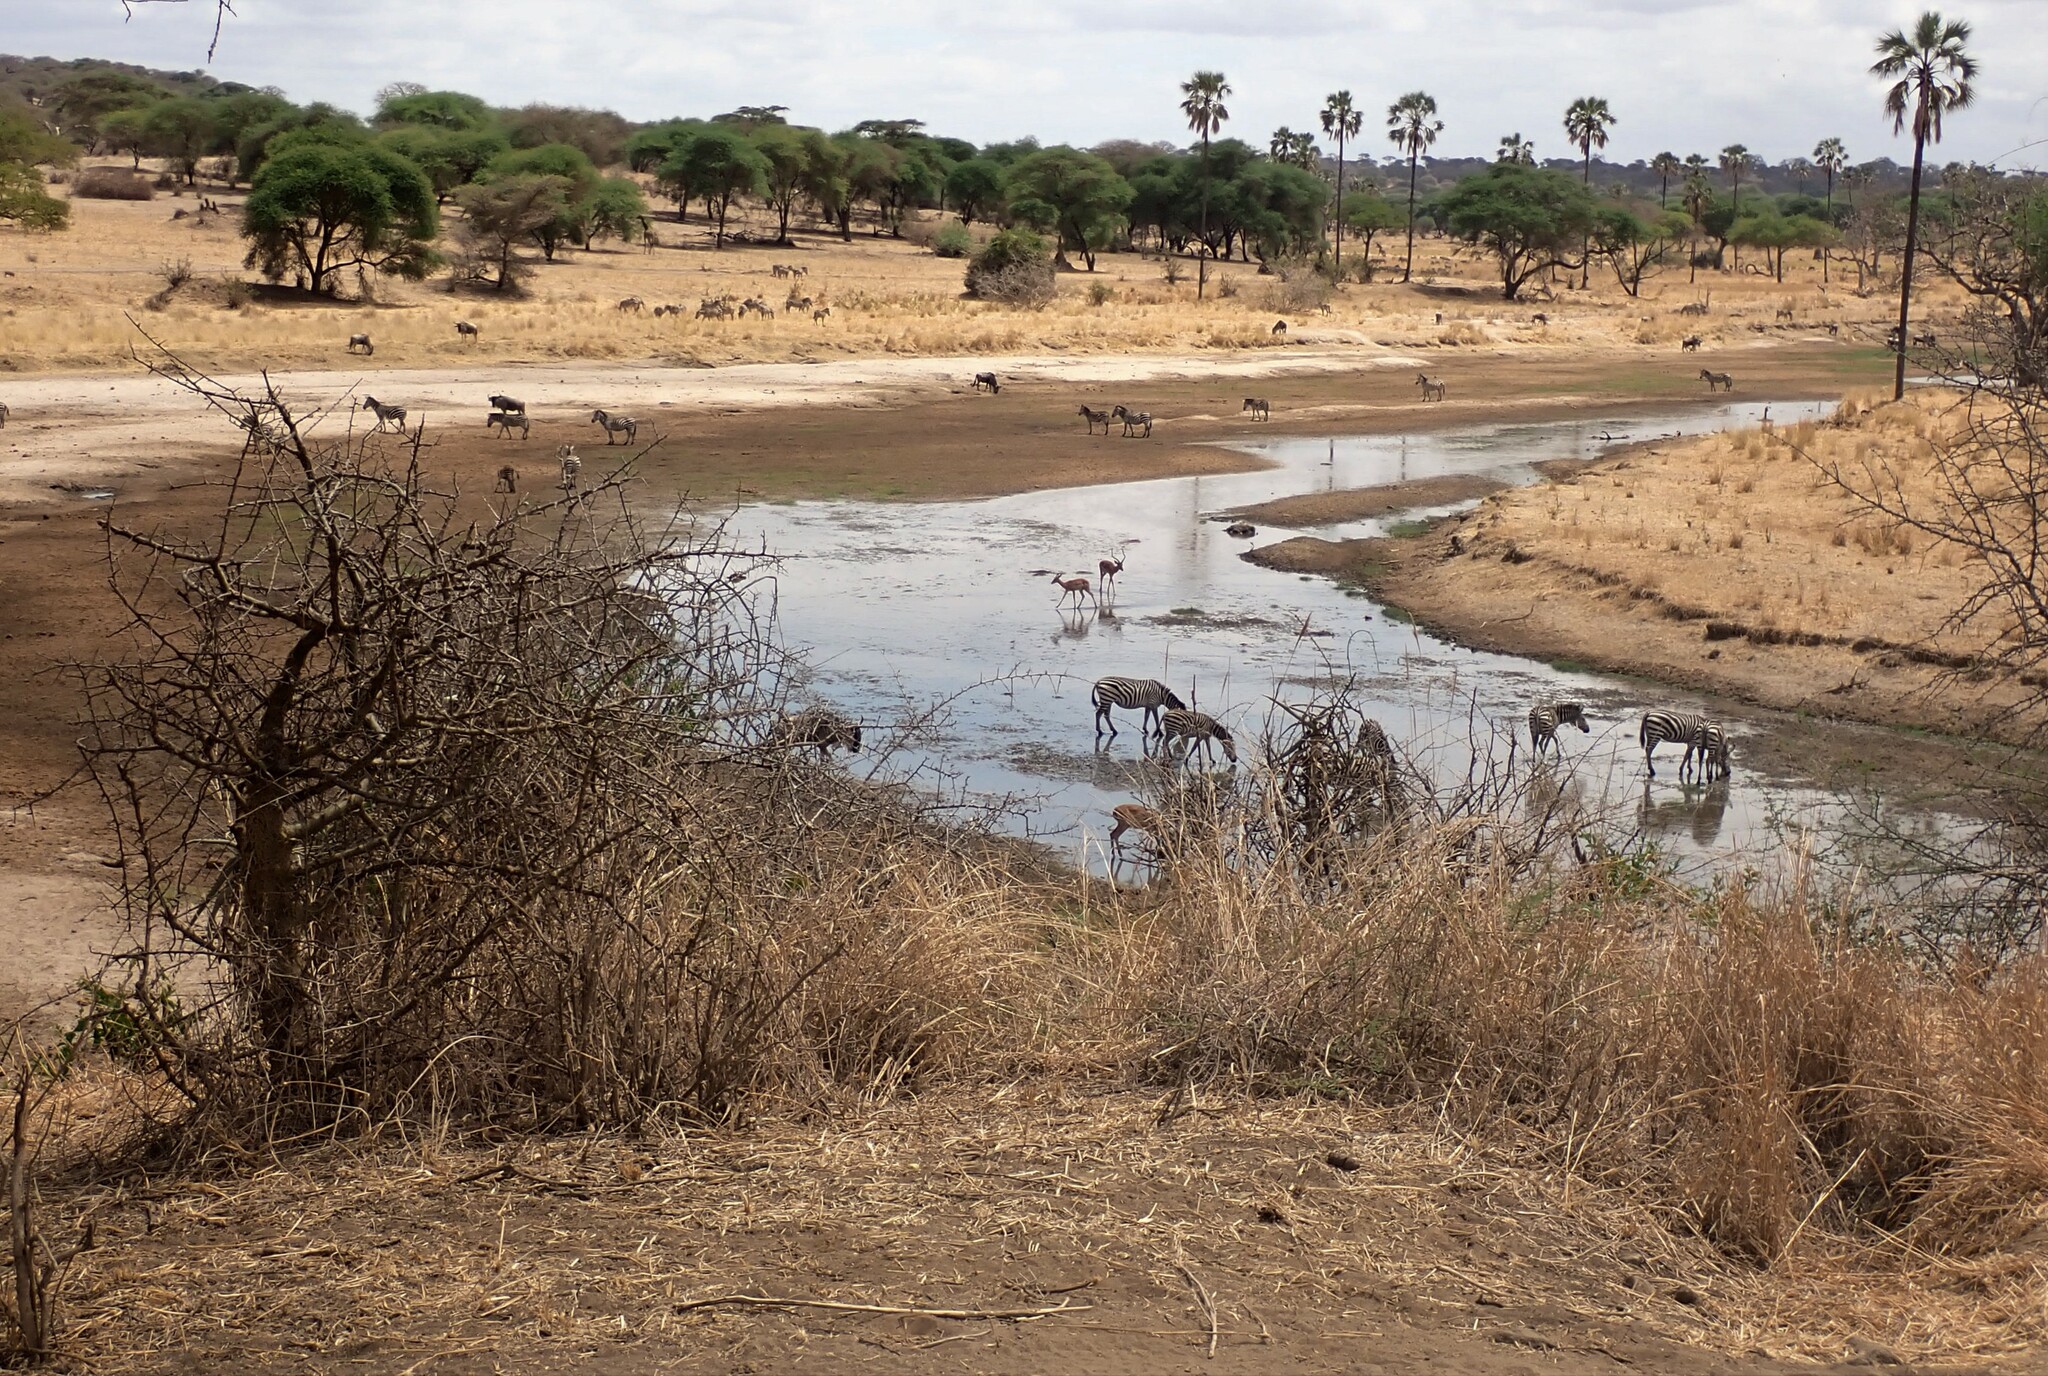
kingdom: Animalia
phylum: Chordata
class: Mammalia
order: Perissodactyla
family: Equidae
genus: Equus
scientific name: Equus quagga
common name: Plains zebra
